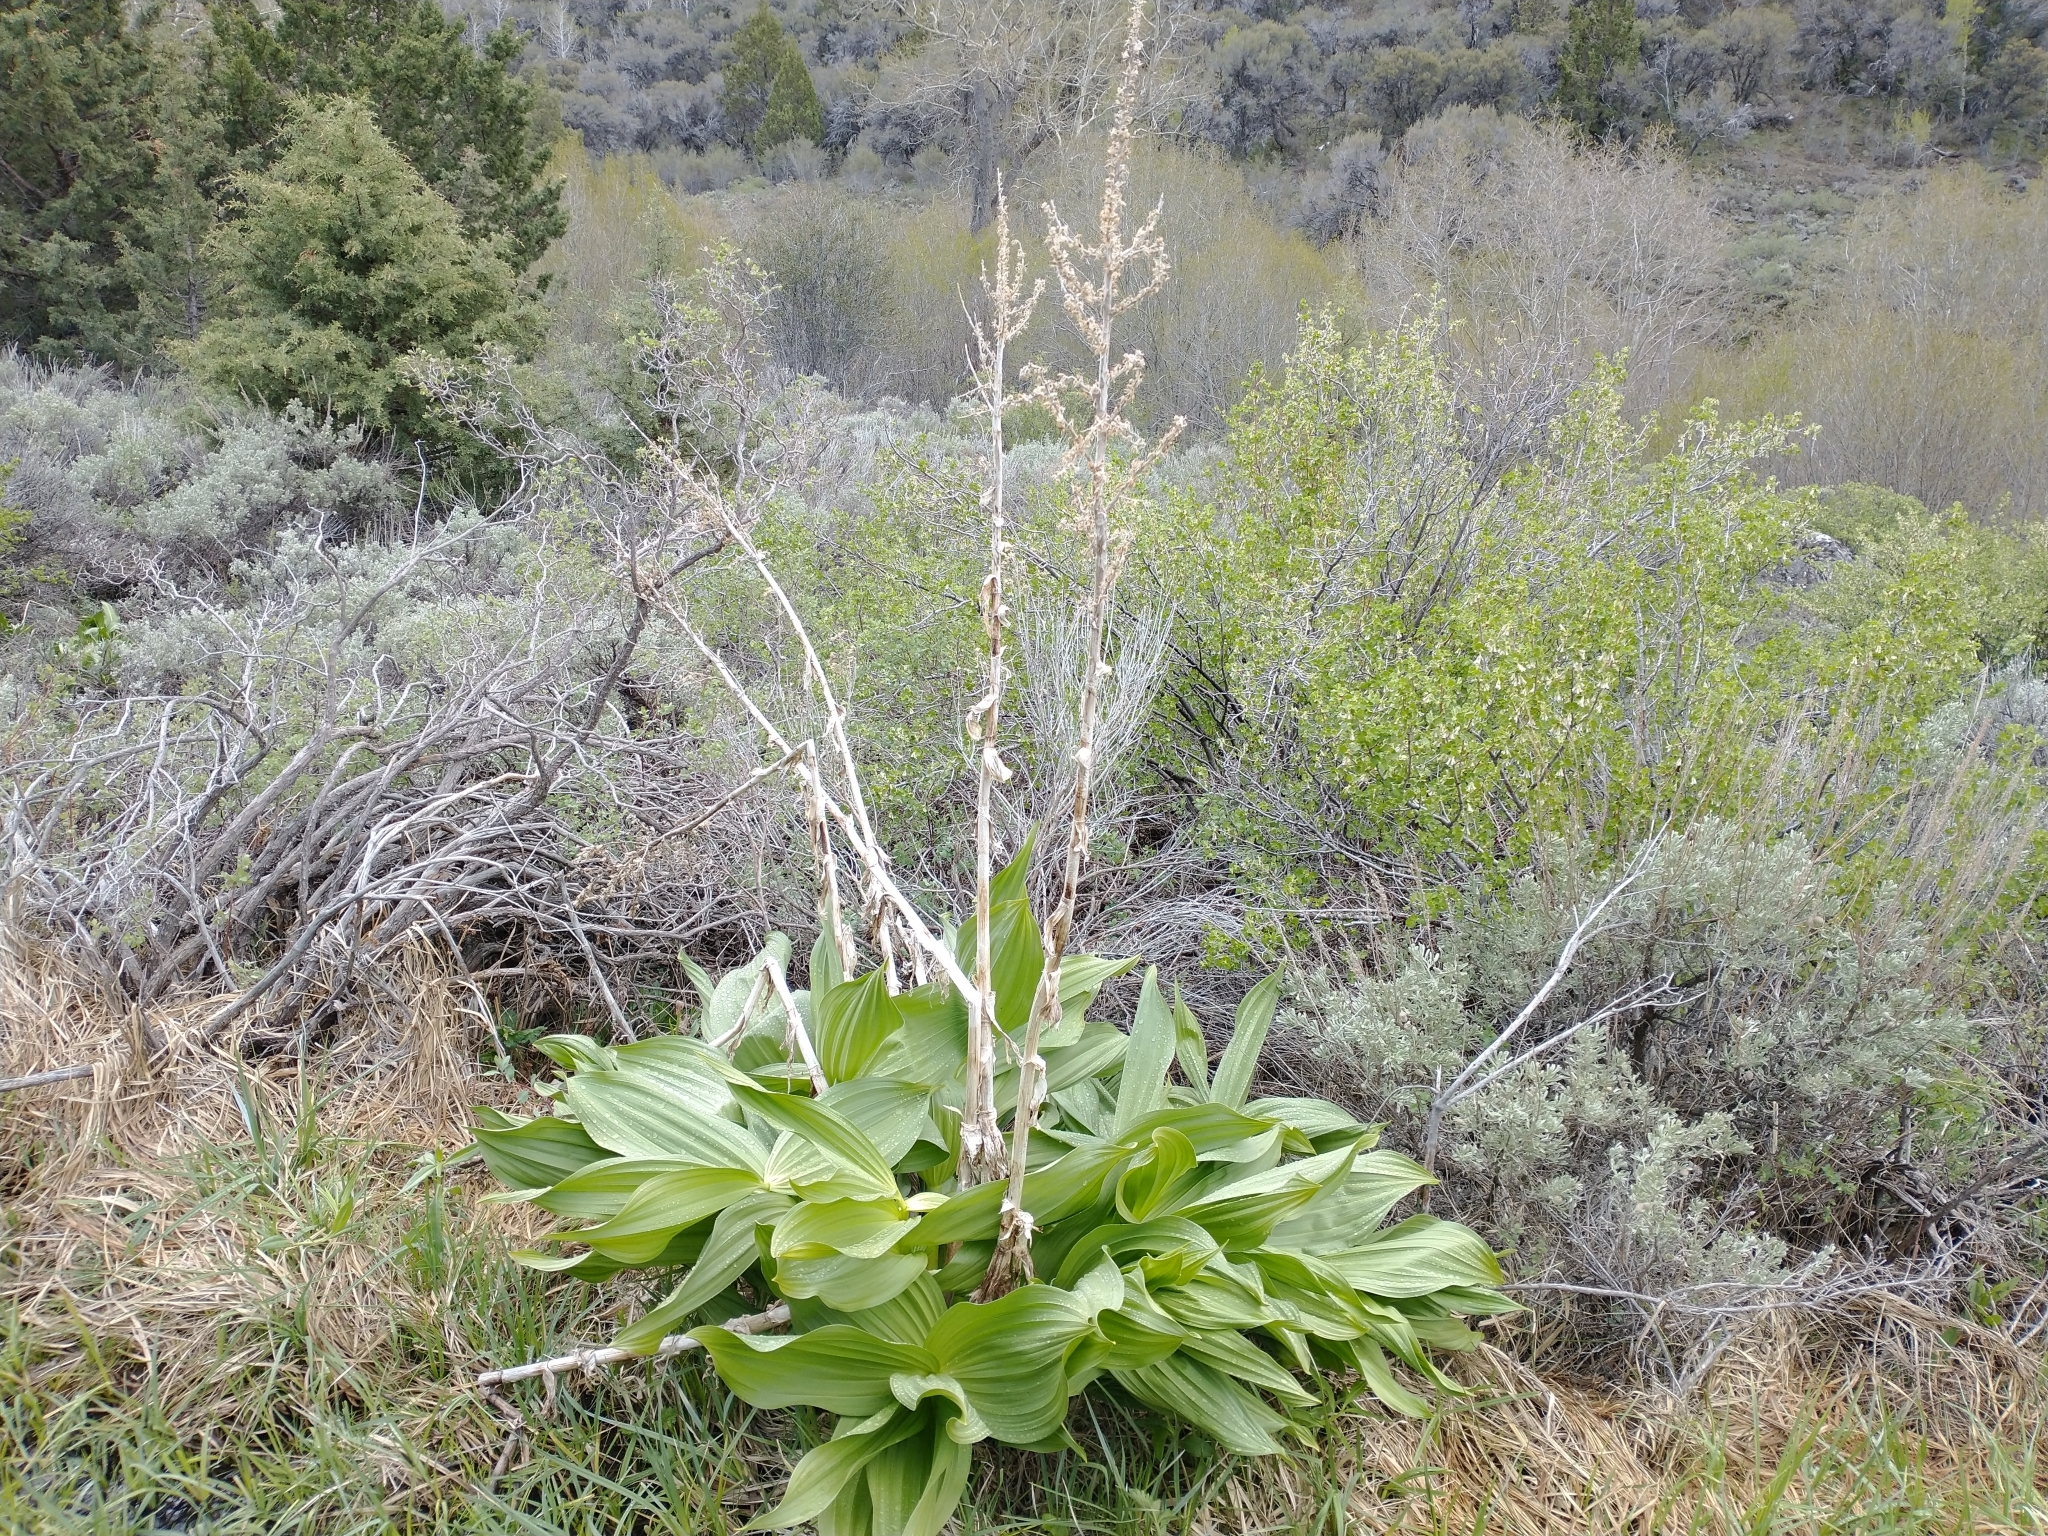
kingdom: Plantae
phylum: Tracheophyta
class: Liliopsida
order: Liliales
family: Melanthiaceae
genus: Veratrum
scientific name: Veratrum californicum
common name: California veratrum
